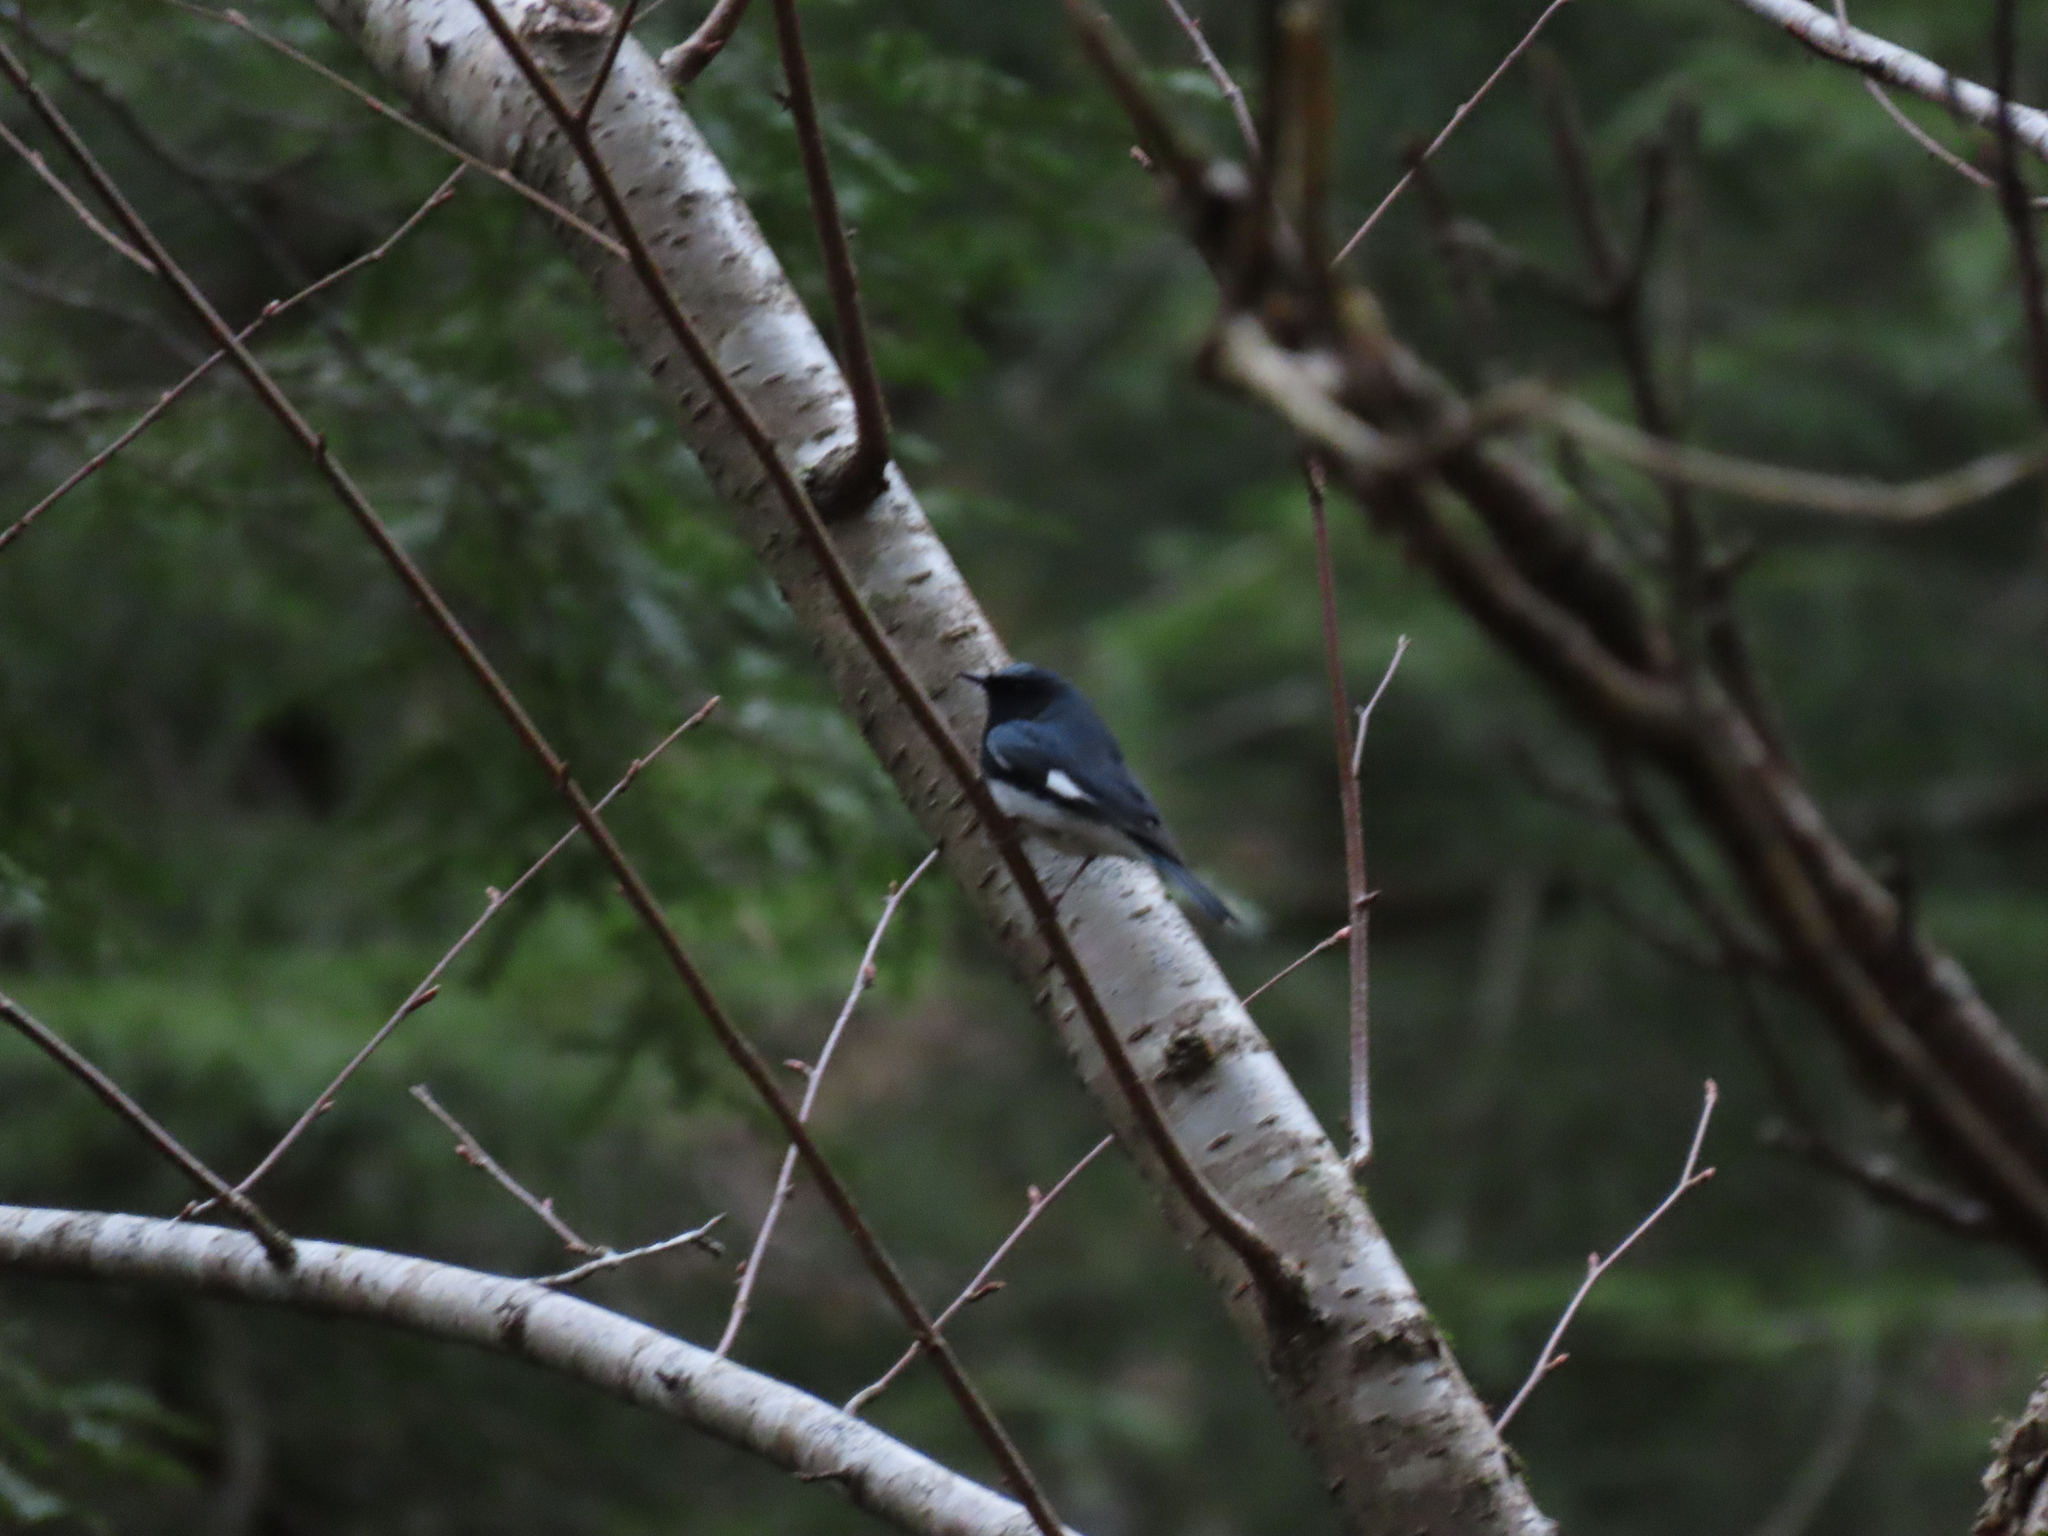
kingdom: Animalia
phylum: Chordata
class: Aves
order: Passeriformes
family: Parulidae
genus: Setophaga
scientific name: Setophaga caerulescens
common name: Black-throated blue warbler
